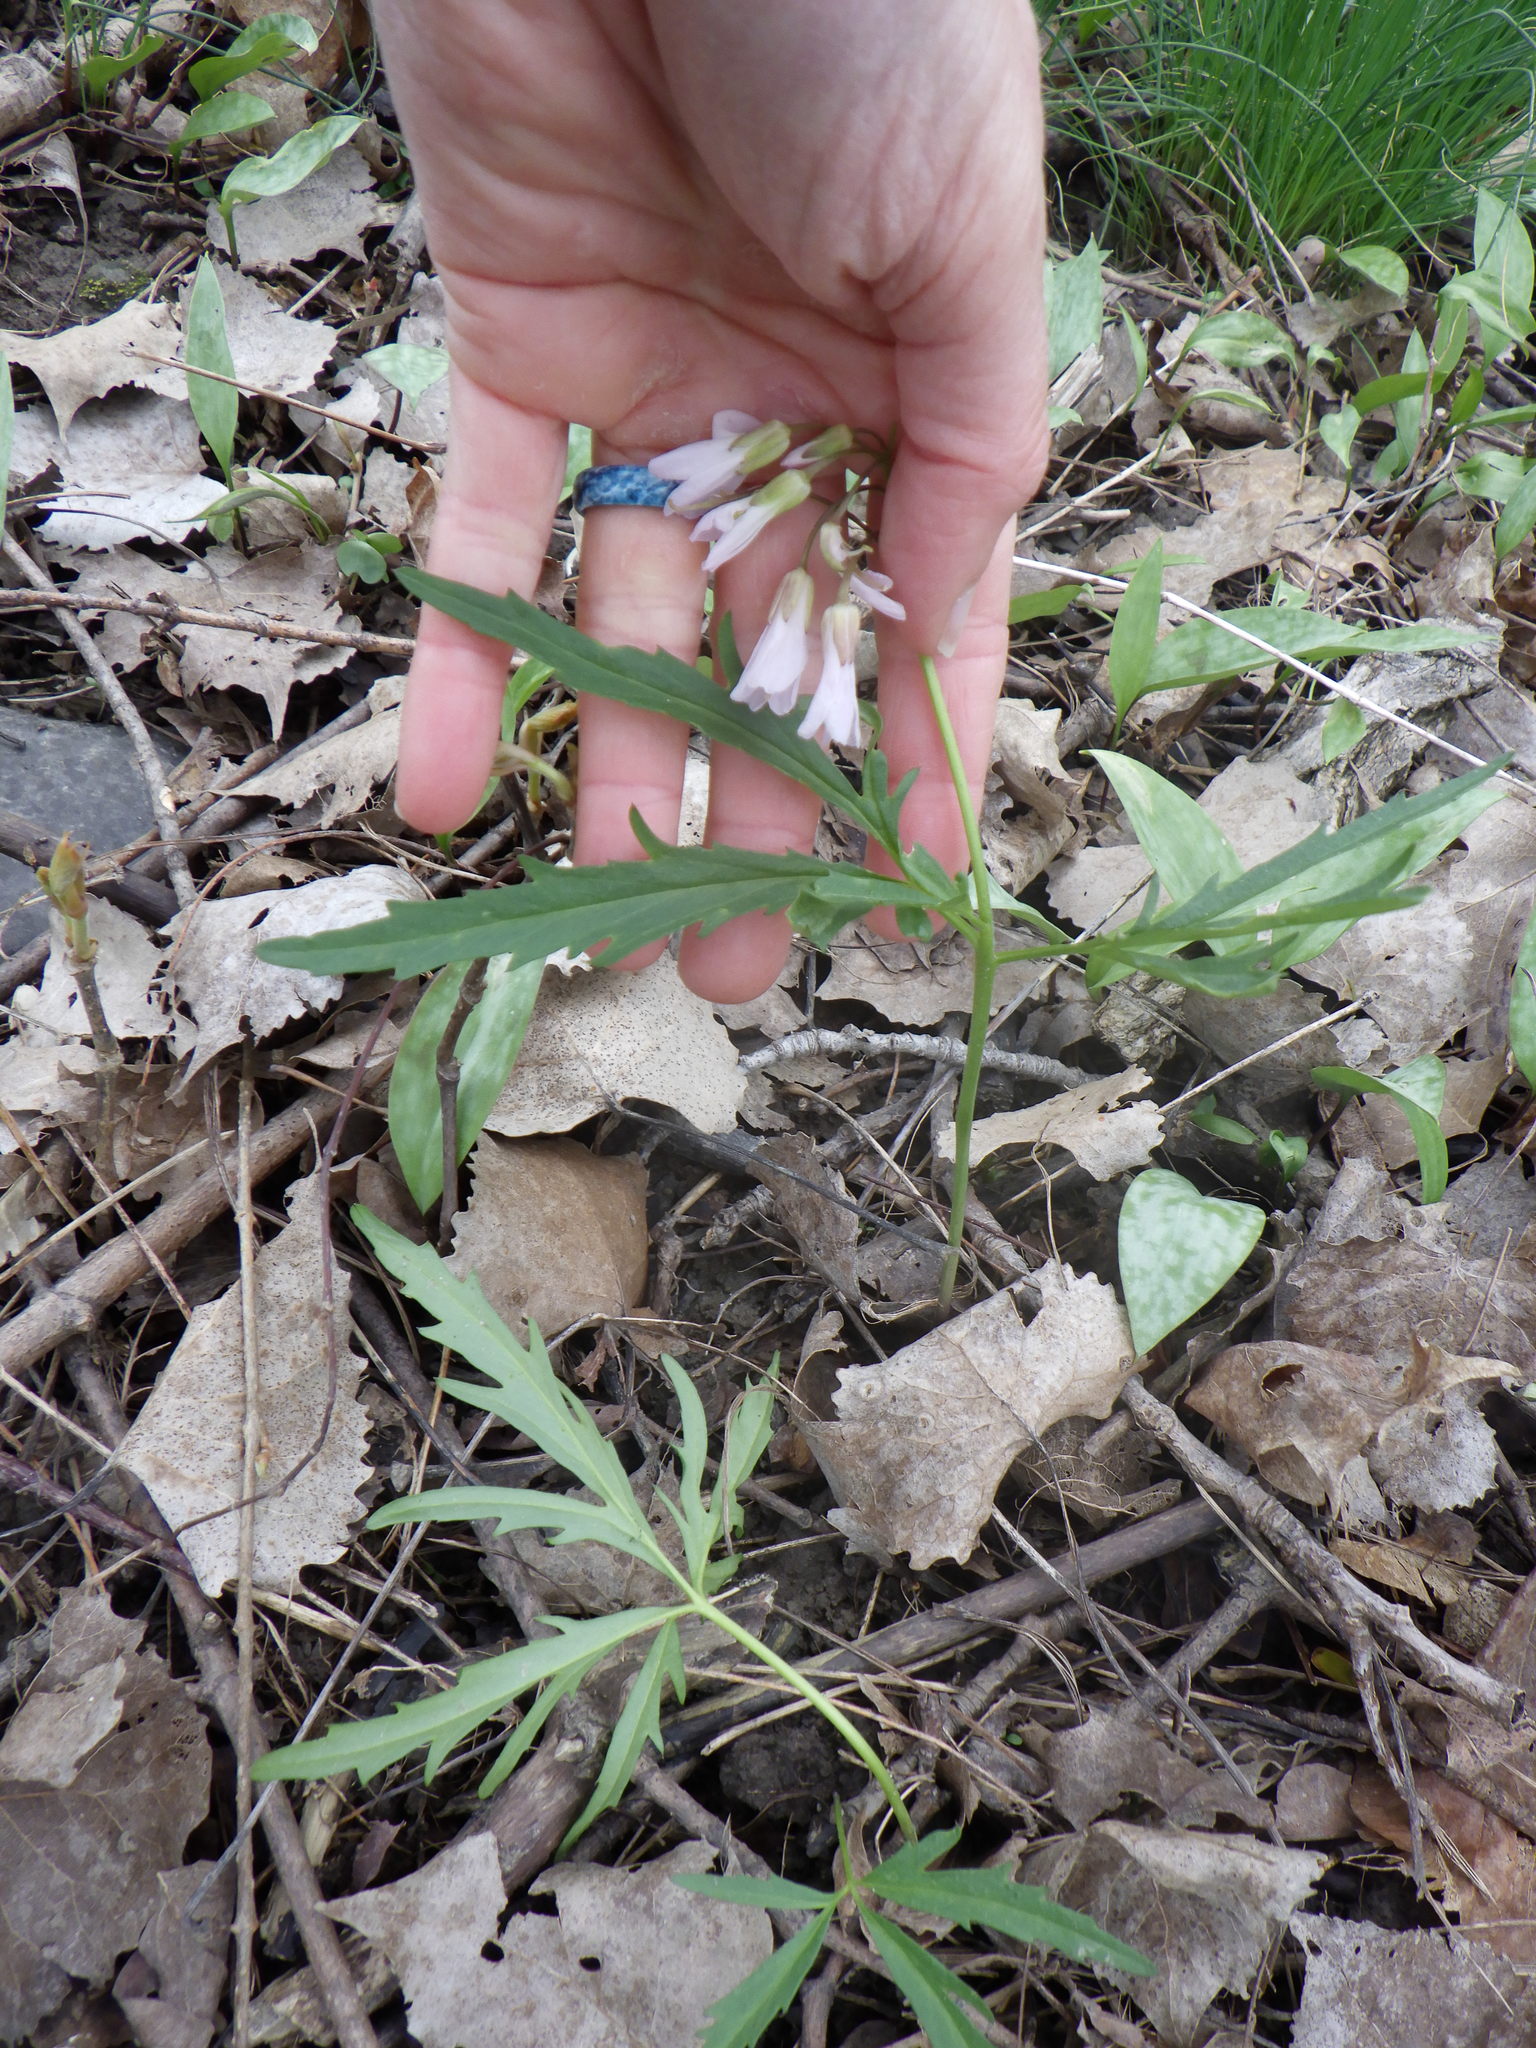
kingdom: Plantae
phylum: Tracheophyta
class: Magnoliopsida
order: Brassicales
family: Brassicaceae
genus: Cardamine
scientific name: Cardamine concatenata
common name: Cut-leaf toothcup
